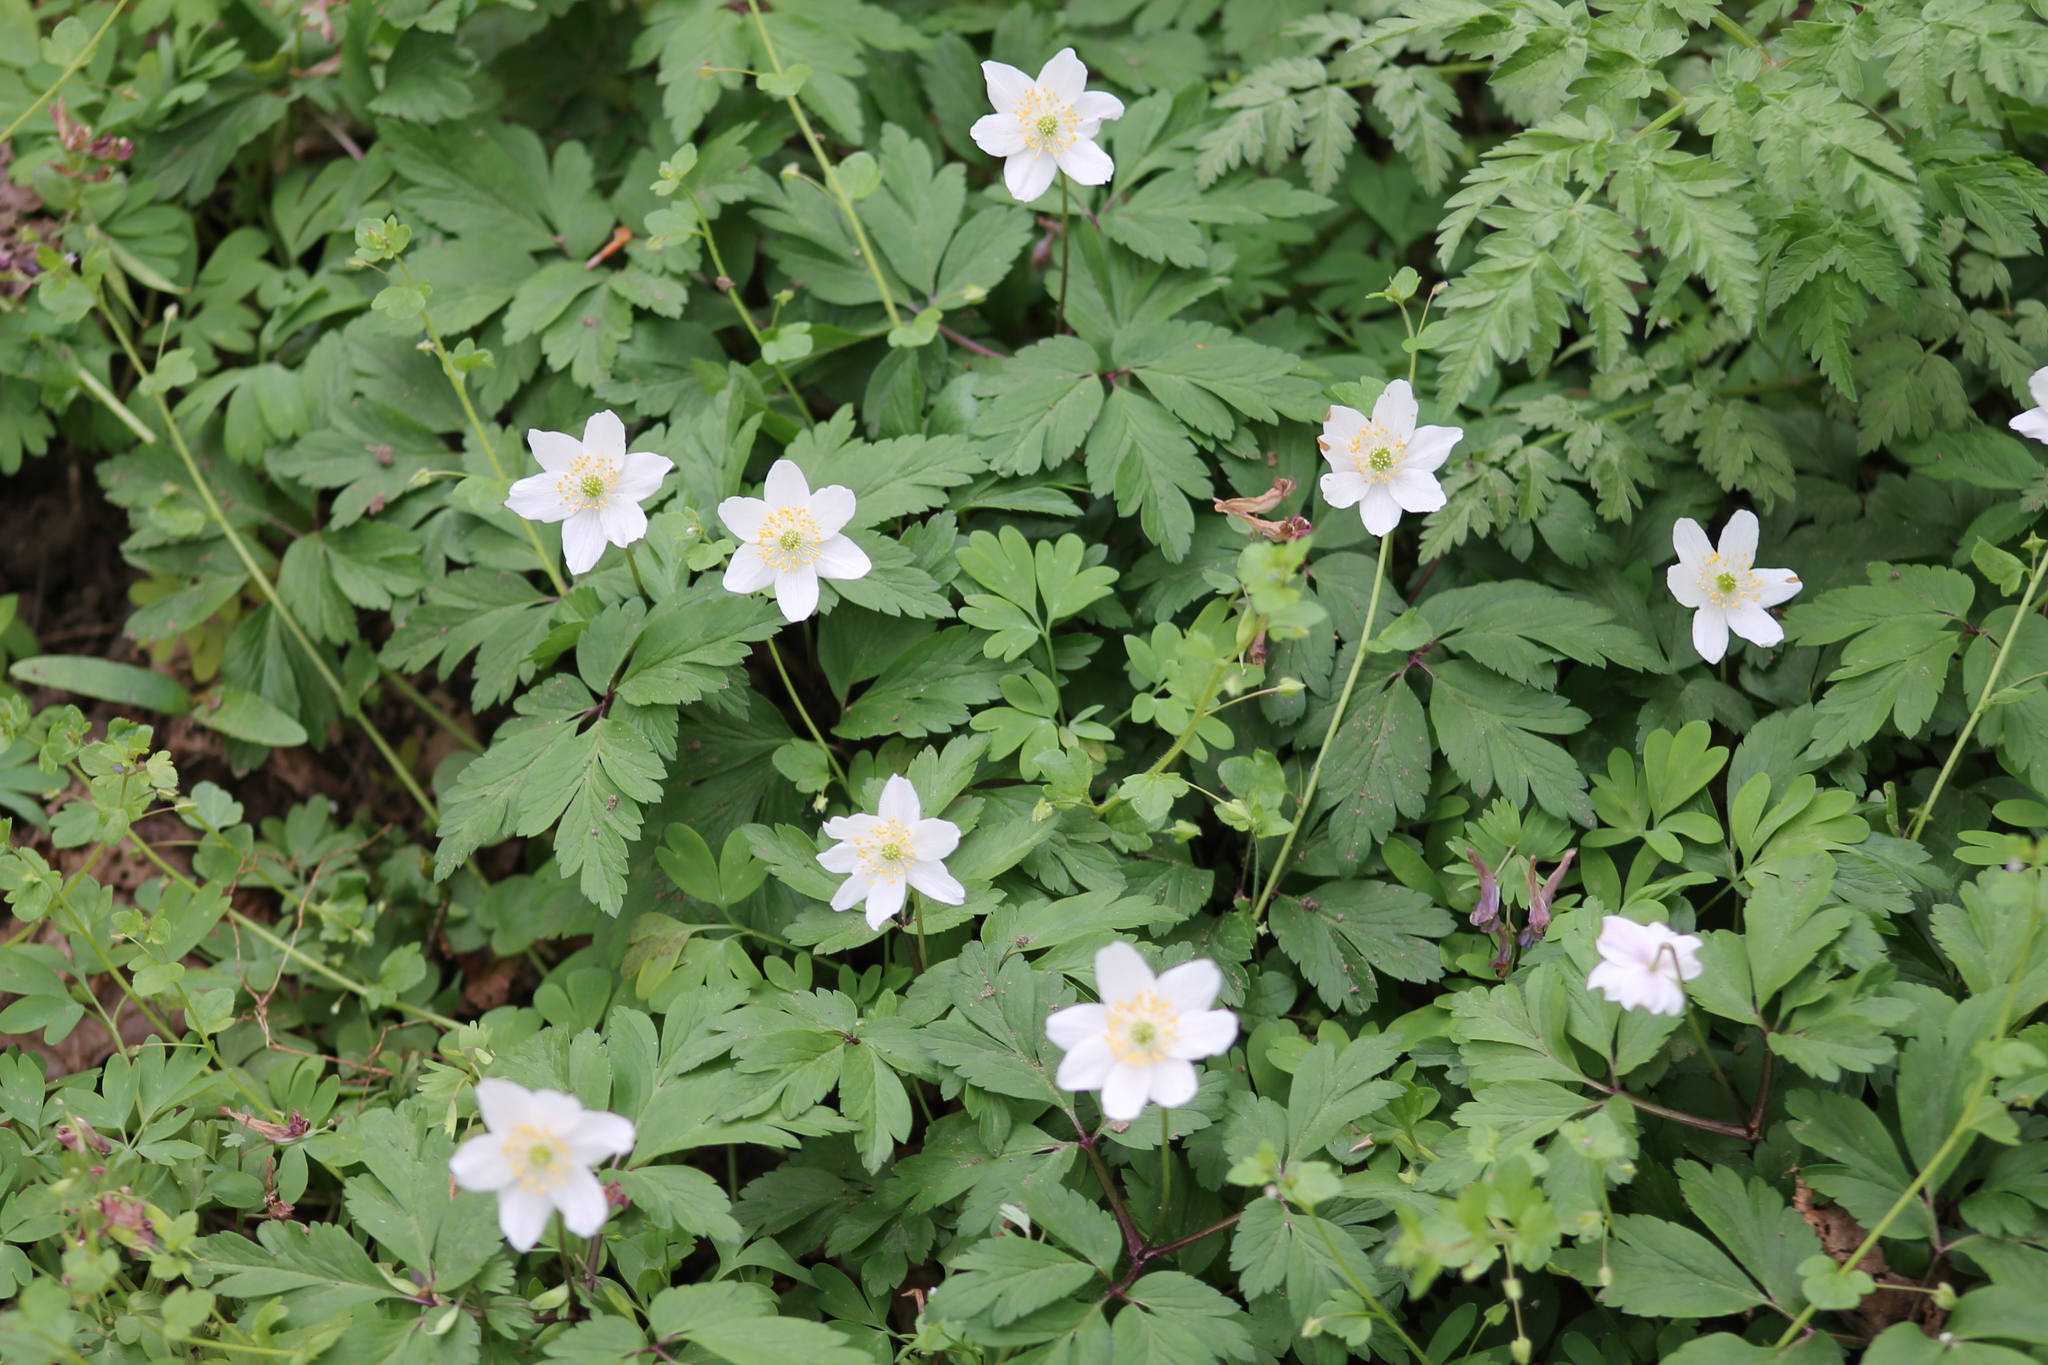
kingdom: Plantae
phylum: Tracheophyta
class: Magnoliopsida
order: Ranunculales
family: Ranunculaceae
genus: Anemone
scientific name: Anemone nemorosa
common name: Wood anemone
